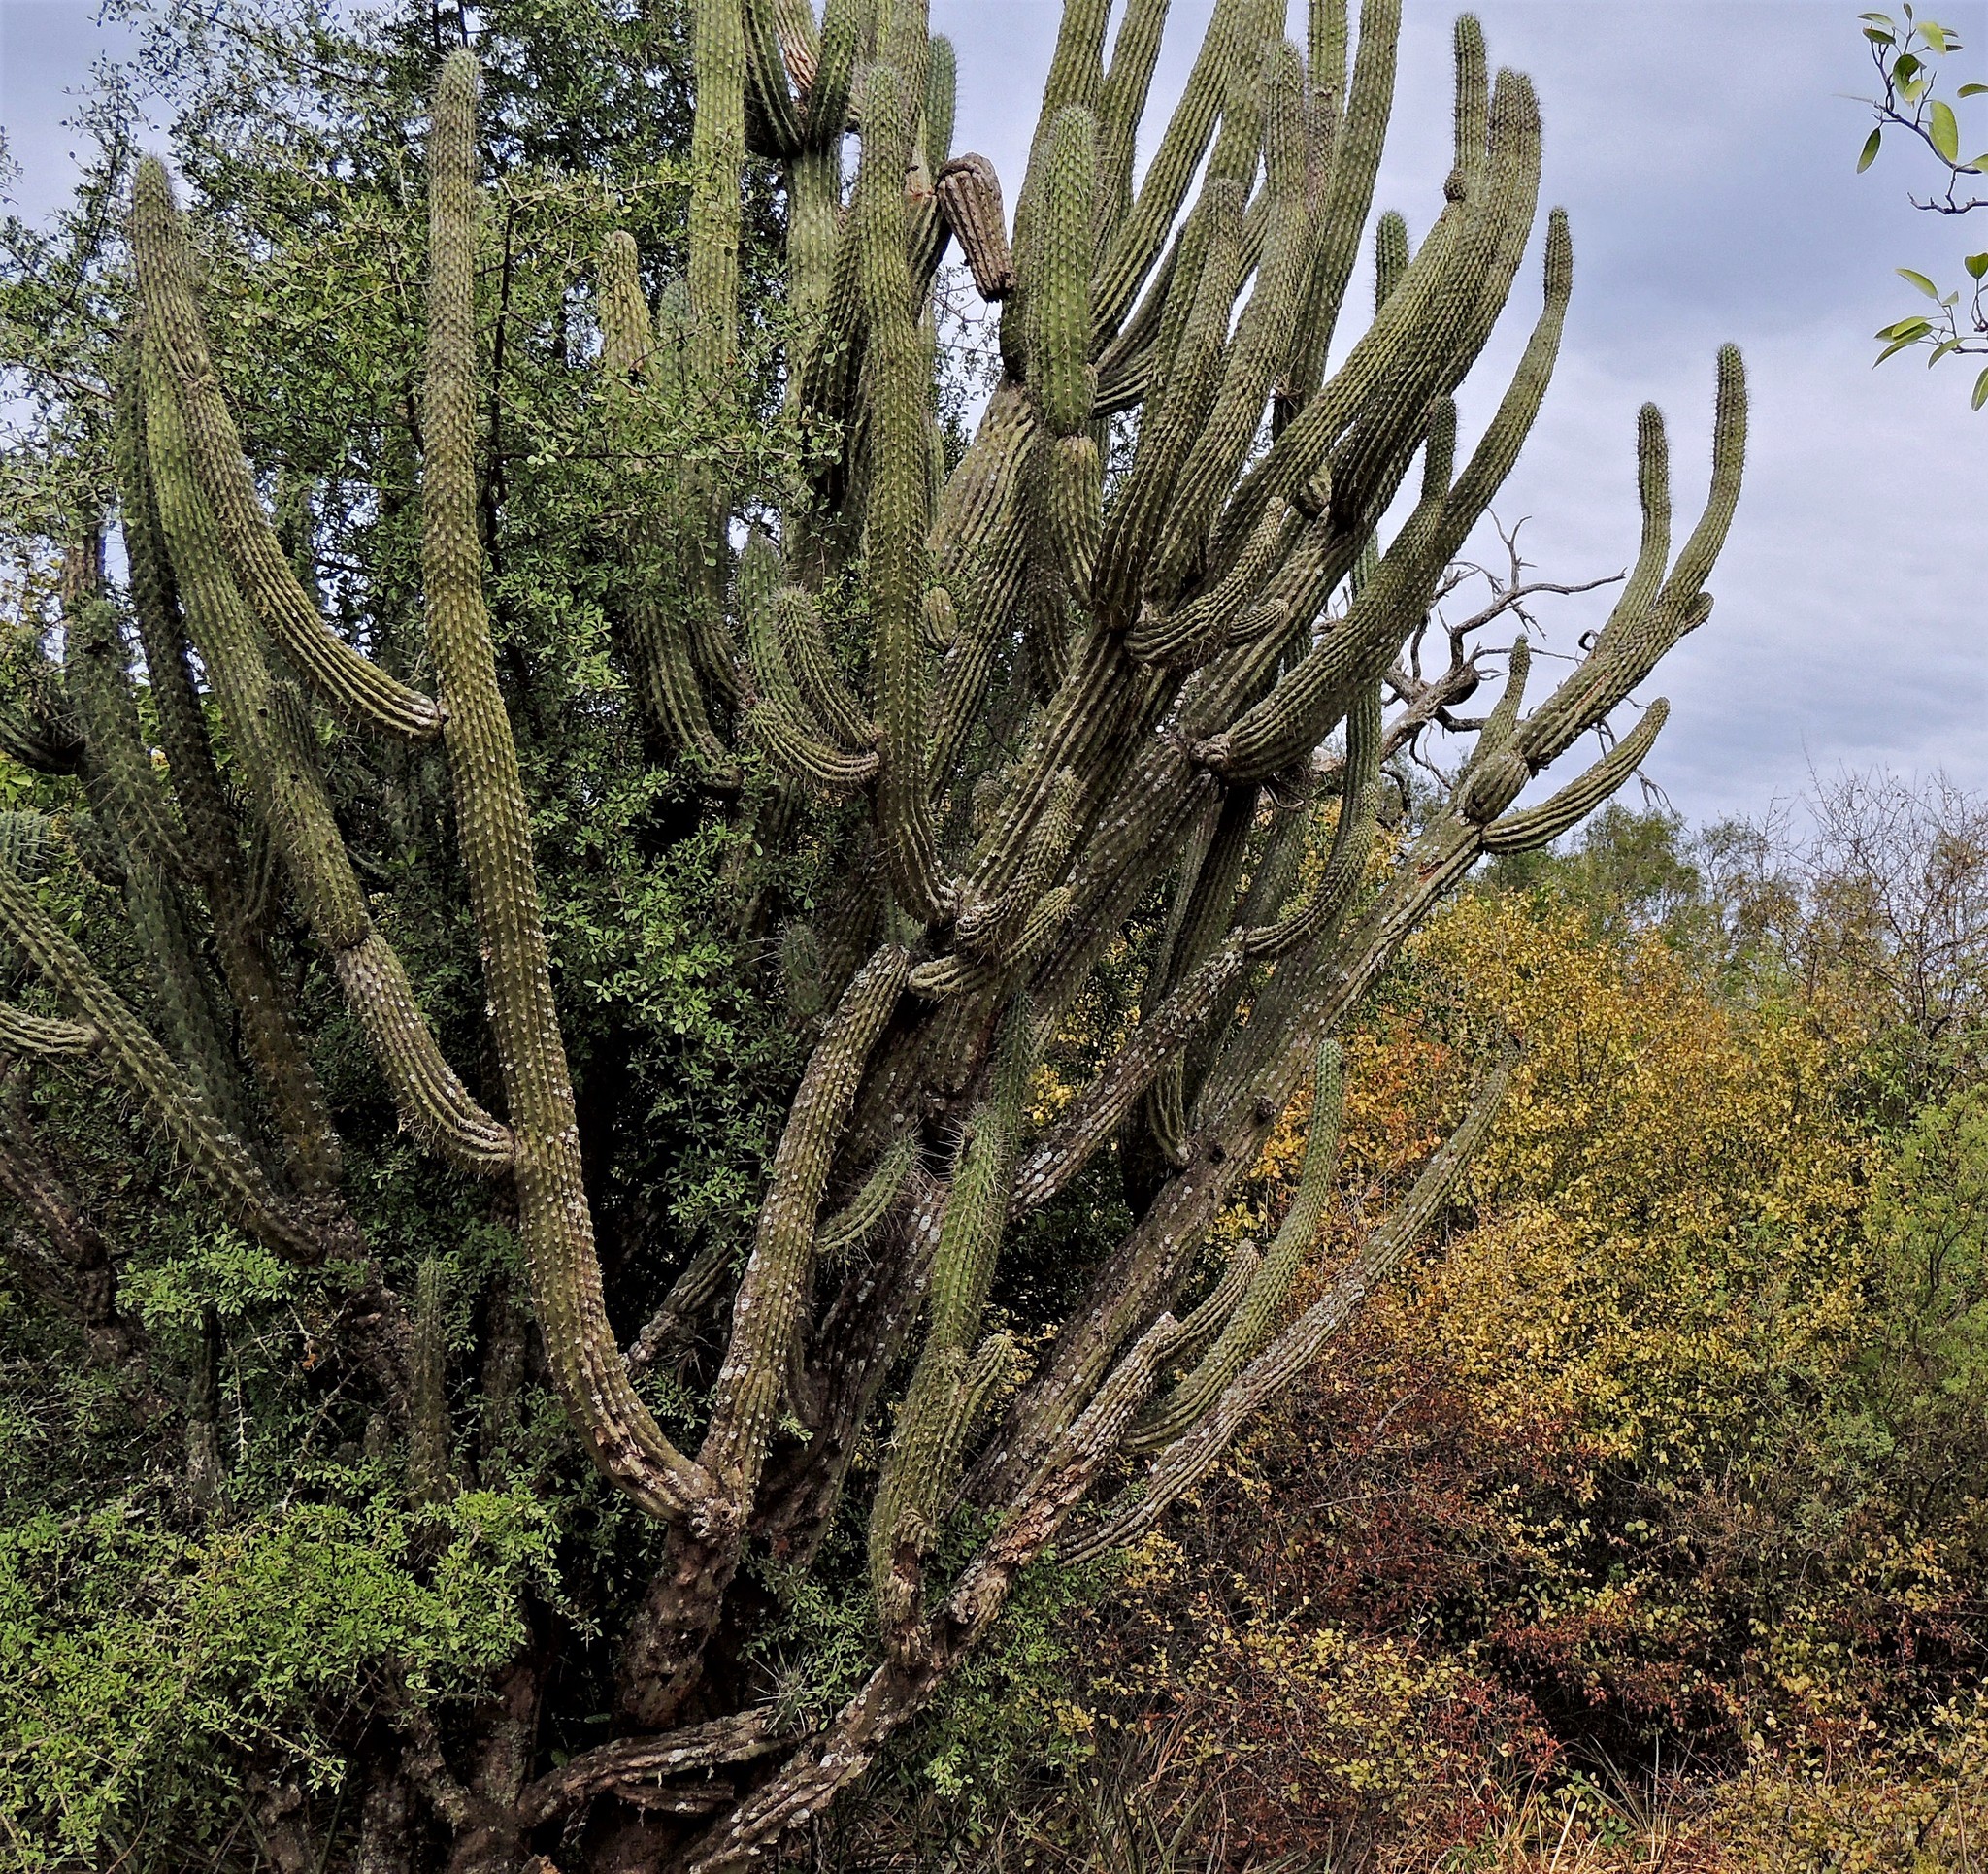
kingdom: Plantae
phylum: Tracheophyta
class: Magnoliopsida
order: Caryophyllales
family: Cactaceae
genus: Stetsonia
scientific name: Stetsonia coryne
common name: Toothpick cactus
